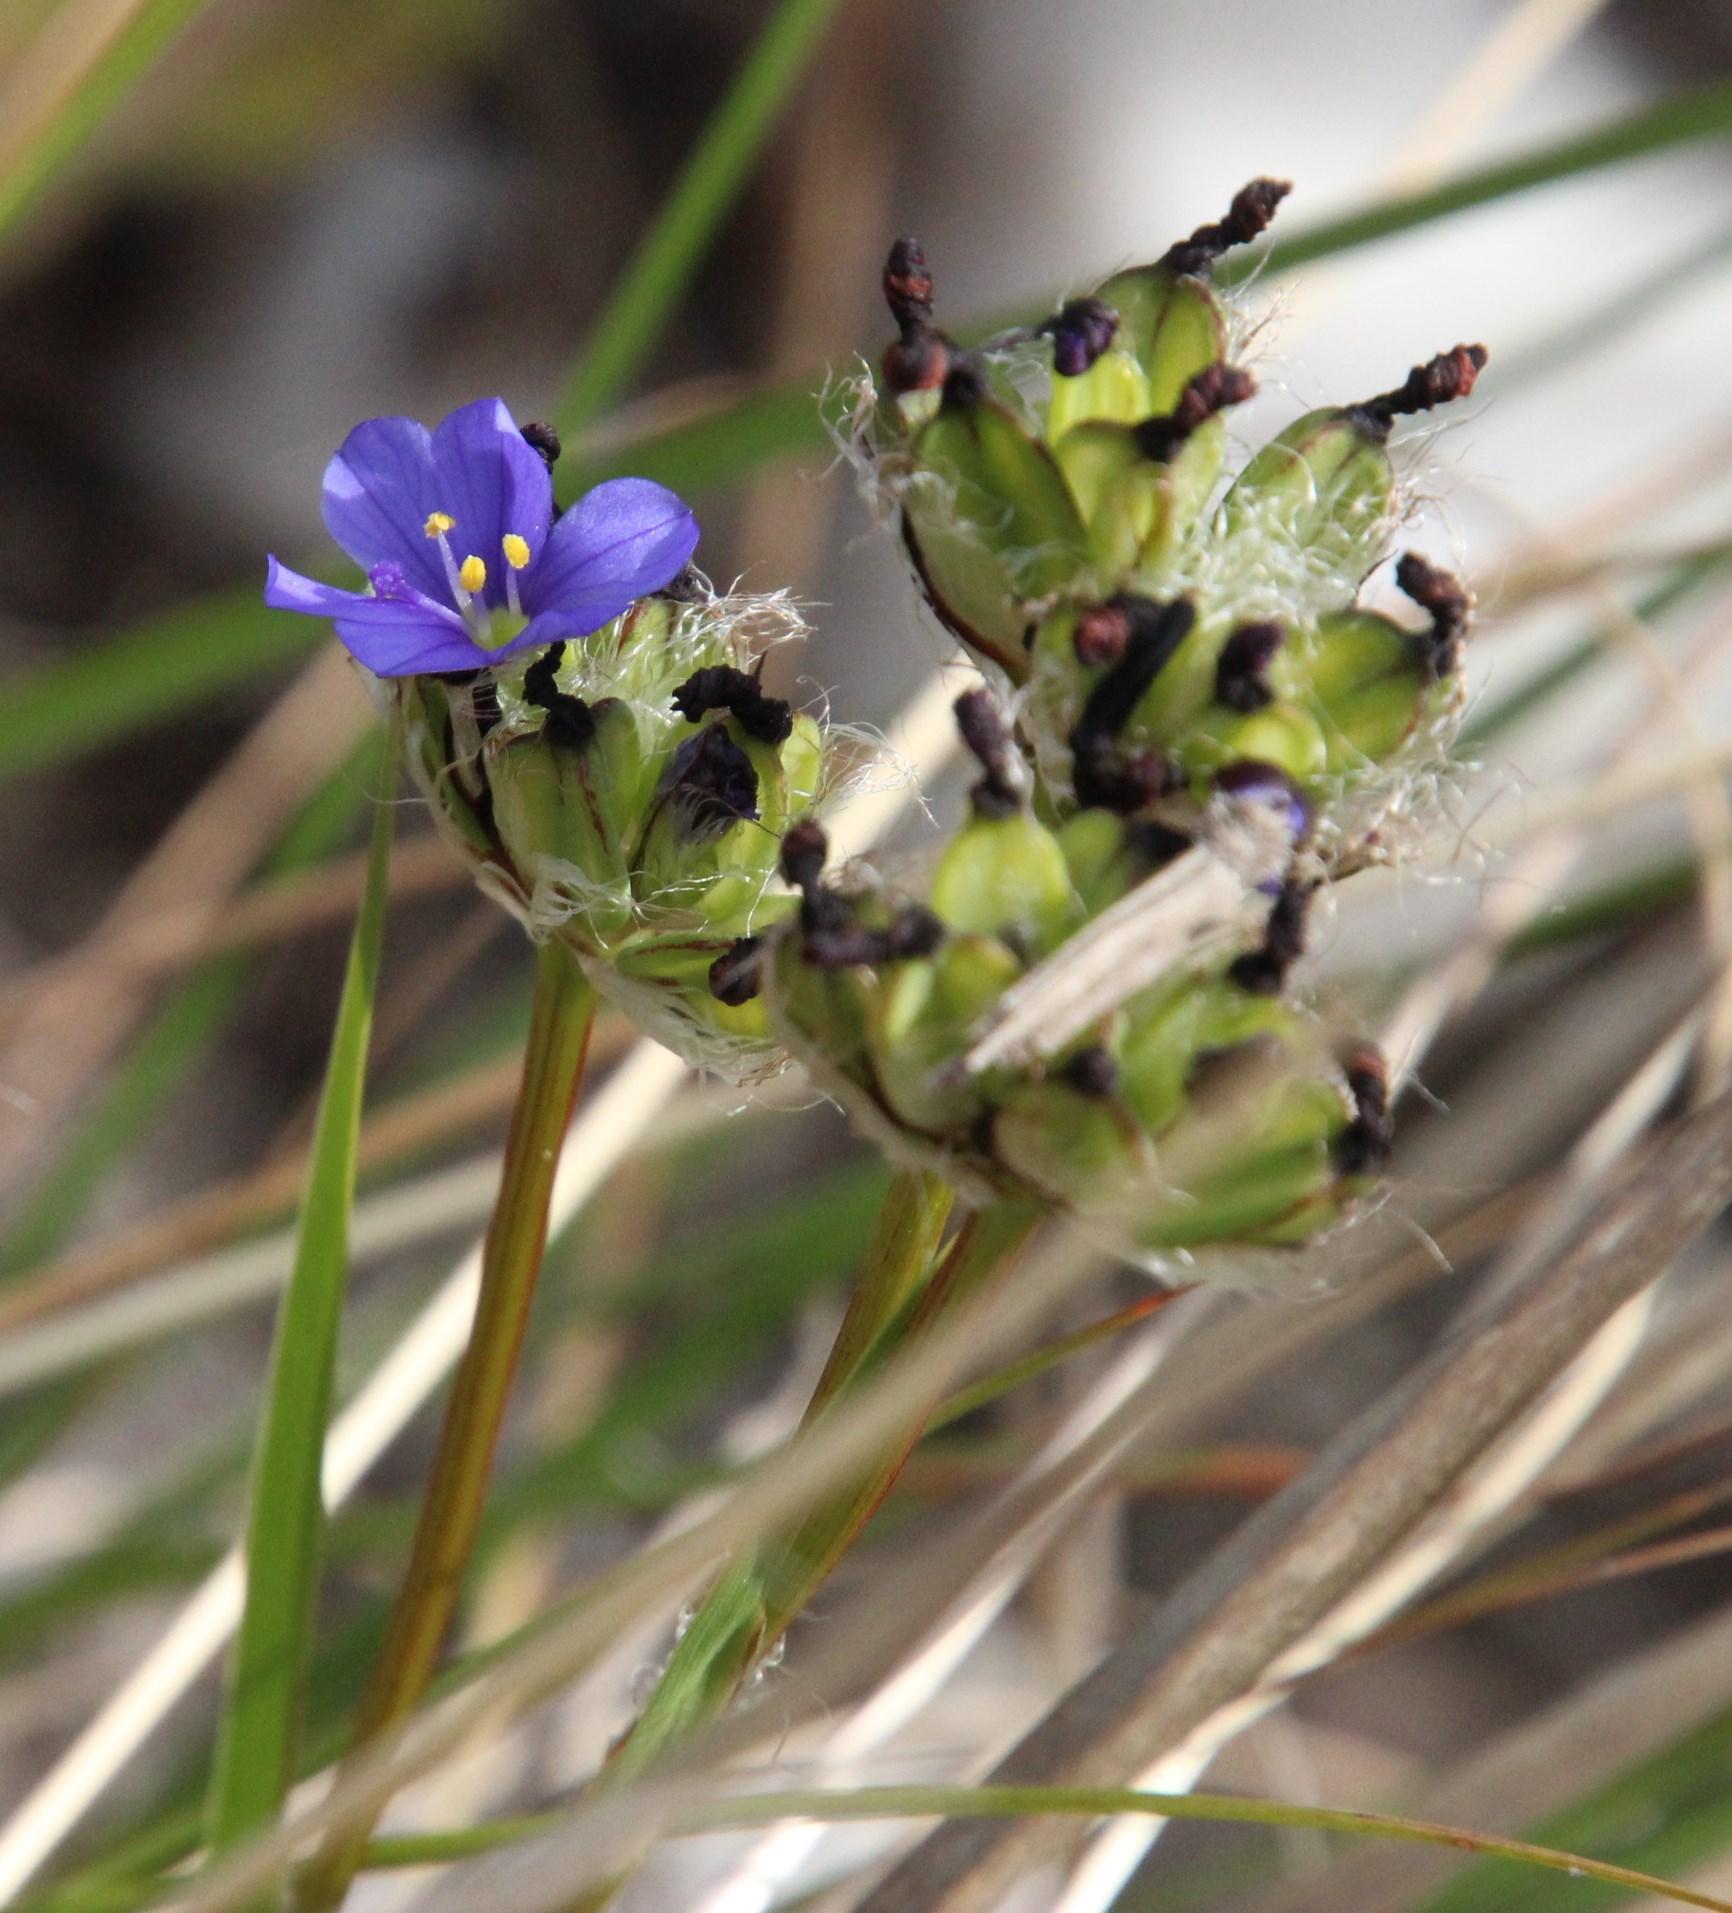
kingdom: Plantae
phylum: Tracheophyta
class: Liliopsida
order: Asparagales
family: Iridaceae
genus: Aristea
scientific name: Aristea africana
